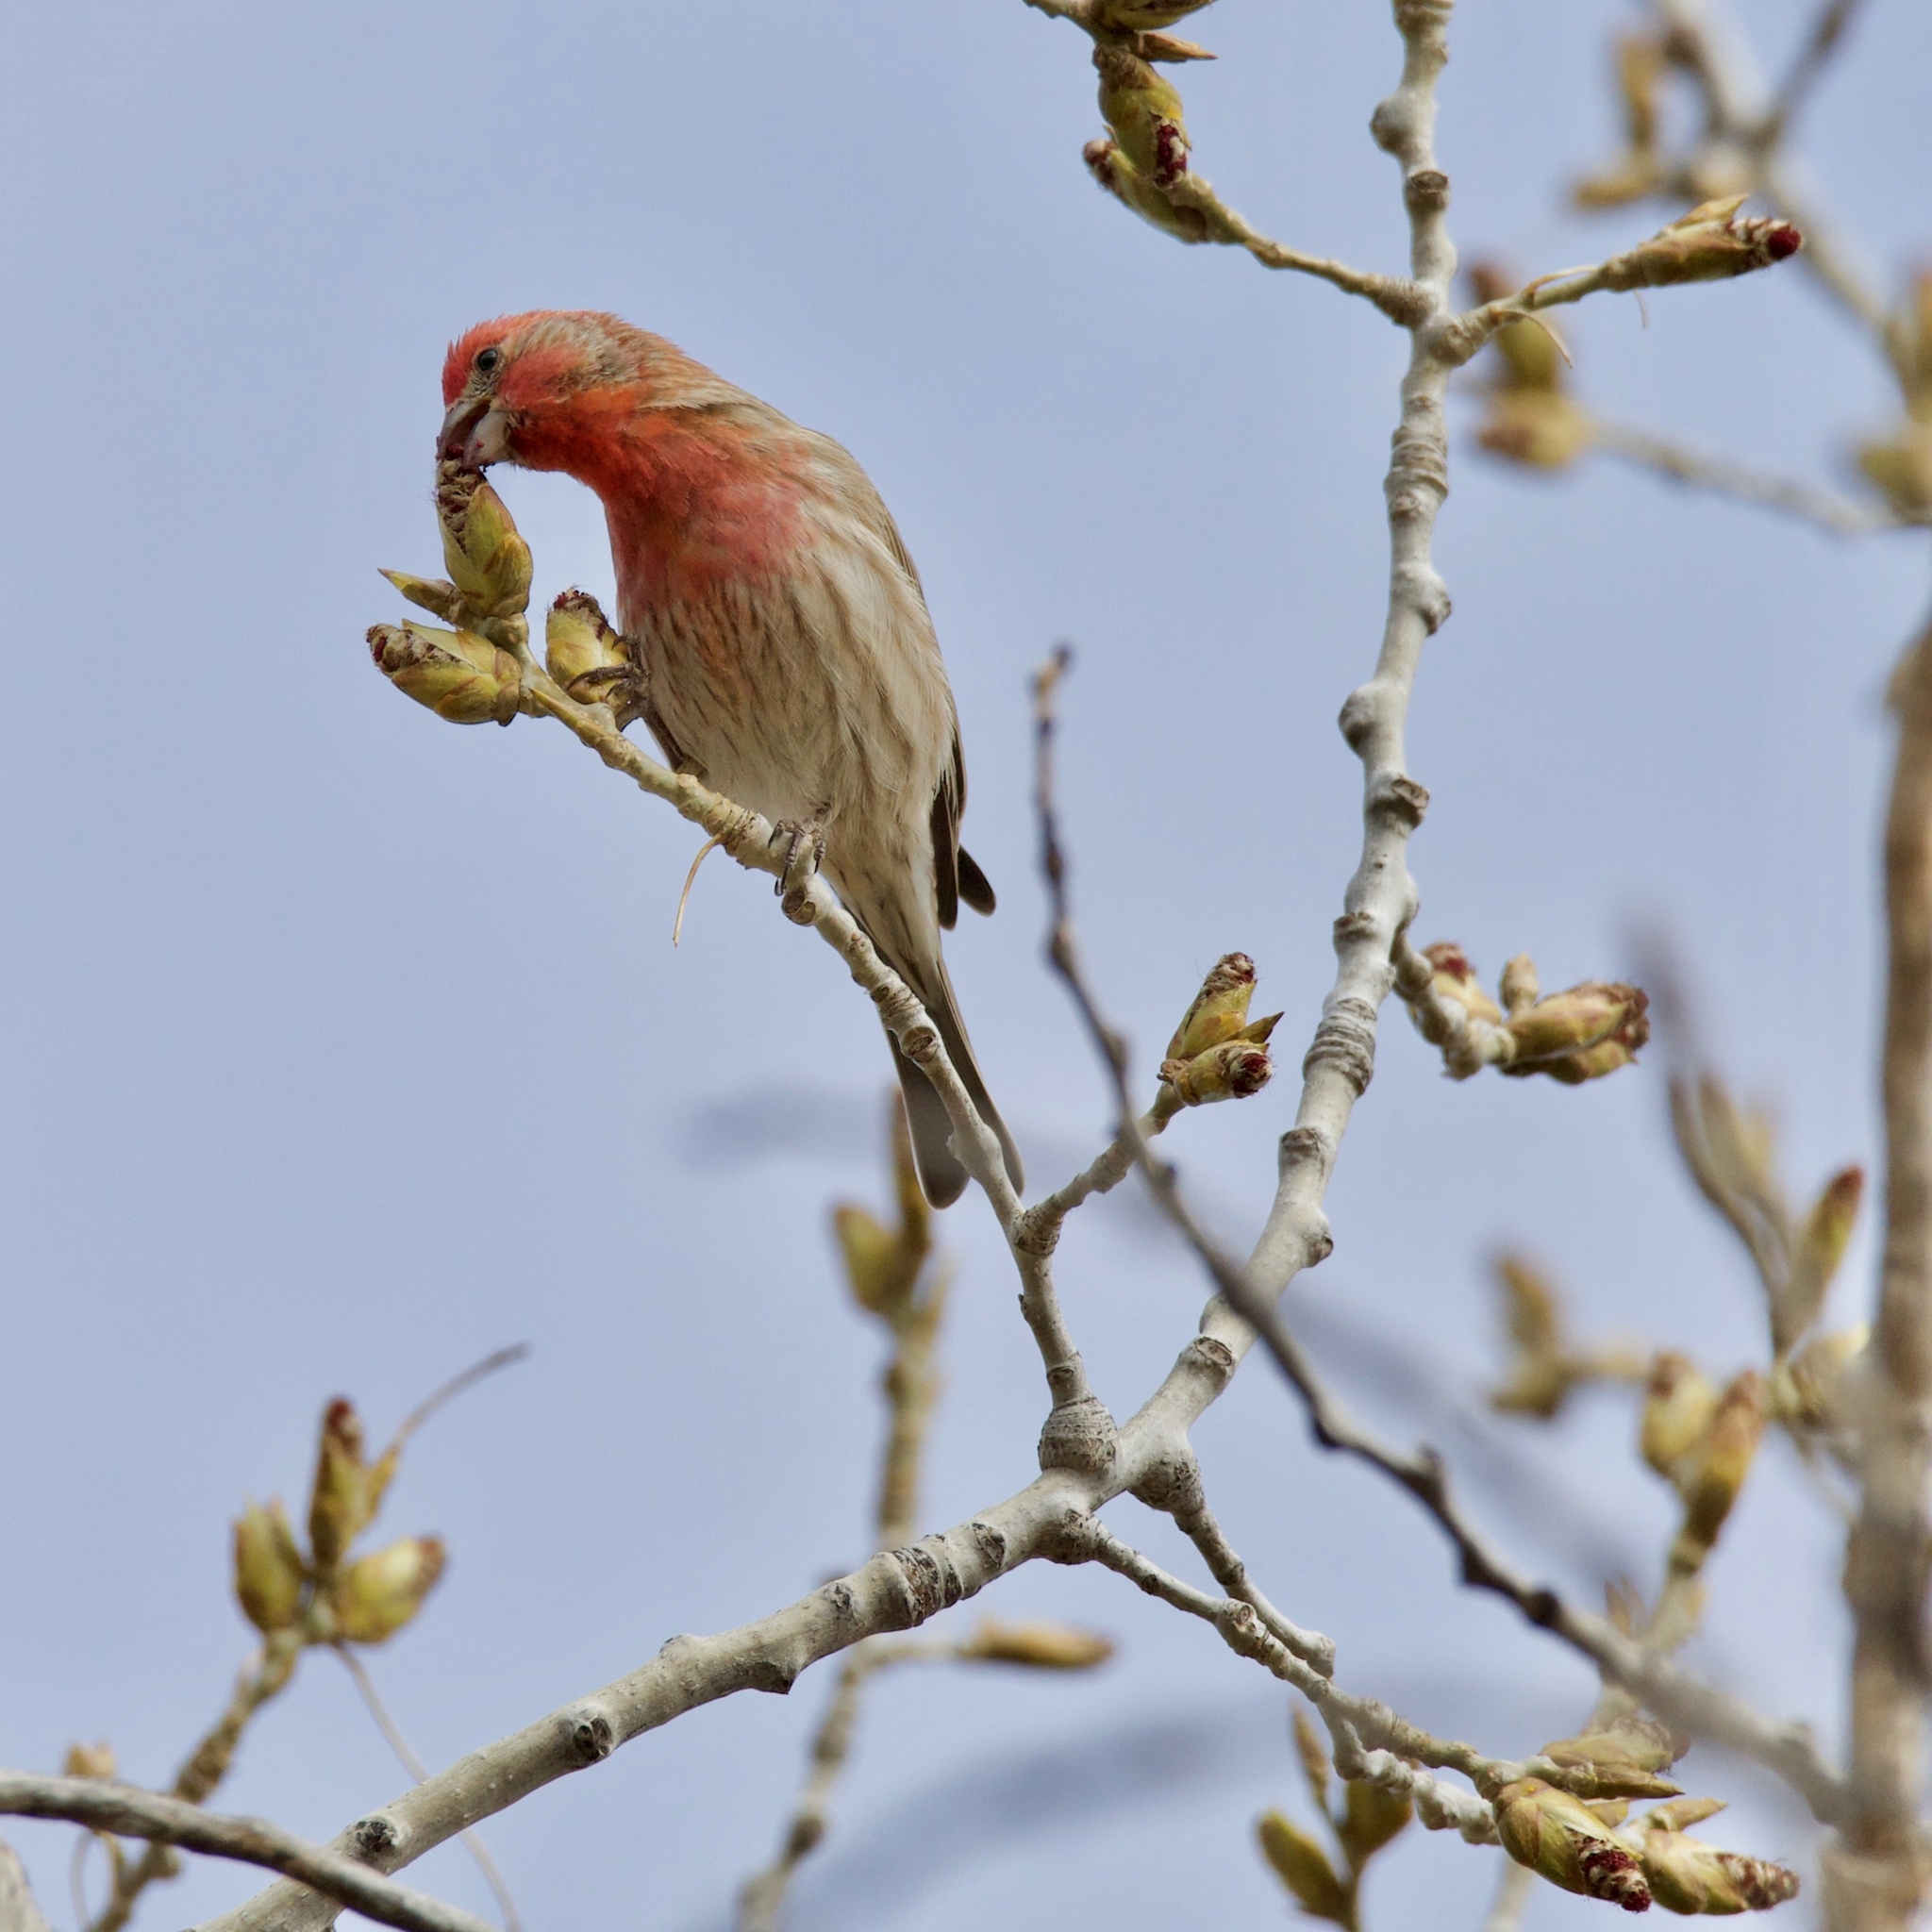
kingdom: Animalia
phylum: Chordata
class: Aves
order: Passeriformes
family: Fringillidae
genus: Haemorhous
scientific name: Haemorhous mexicanus
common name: House finch
